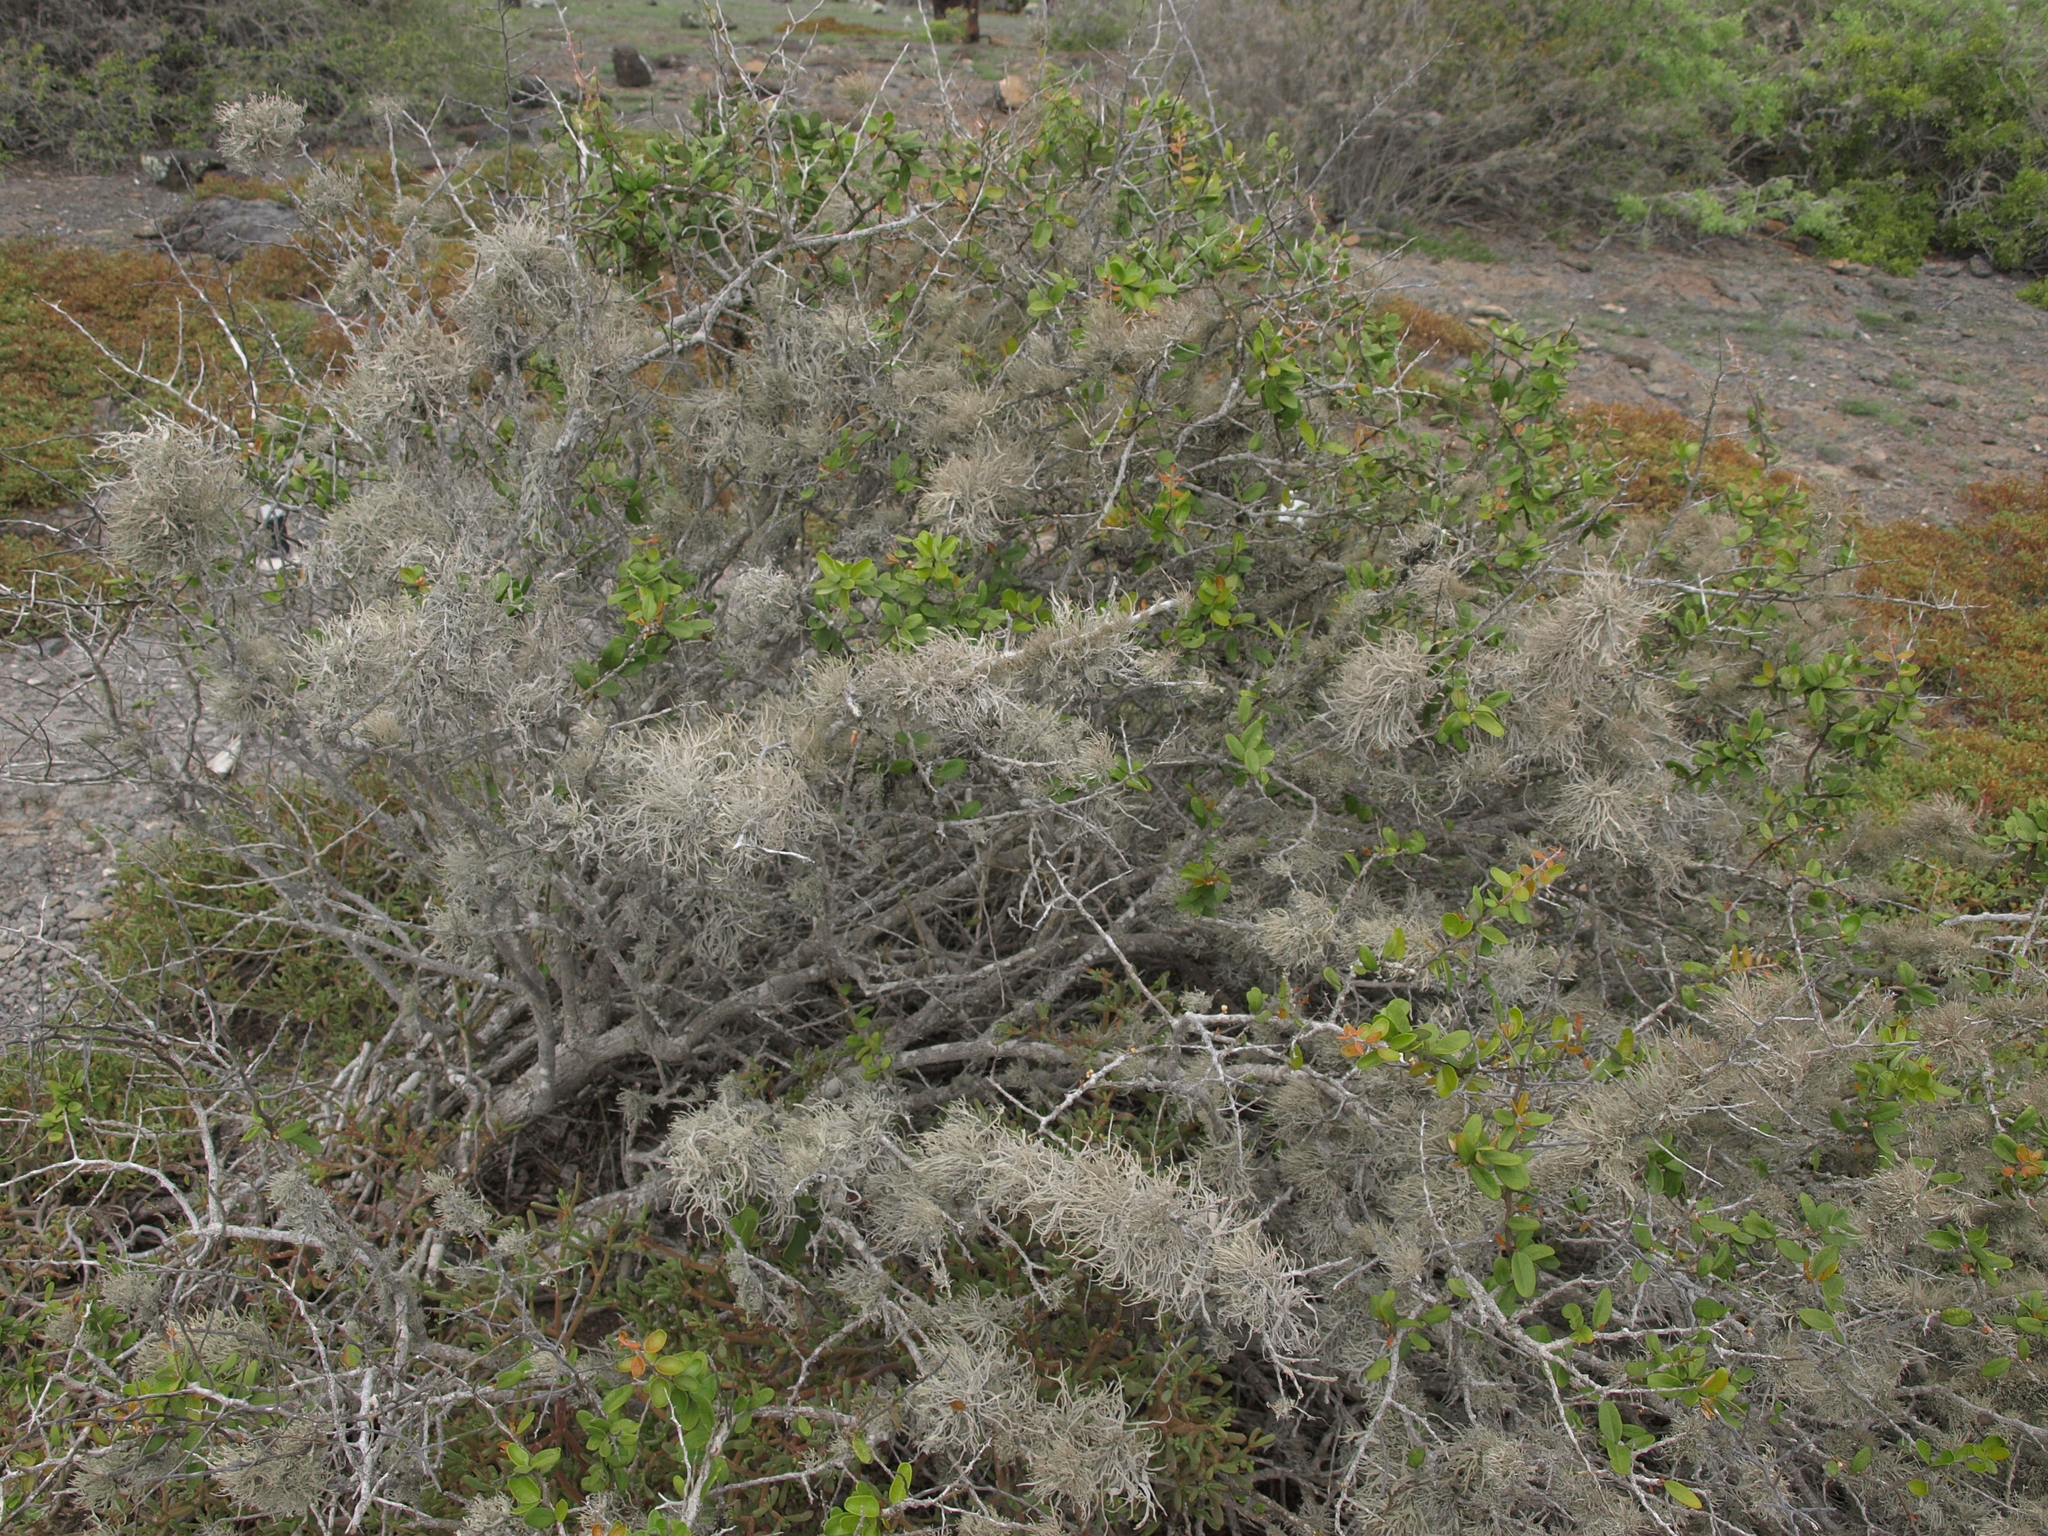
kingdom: Plantae
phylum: Tracheophyta
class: Magnoliopsida
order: Sapindales
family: Simaroubaceae
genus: Castela
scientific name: Castela galapageia
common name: Bitterbush
